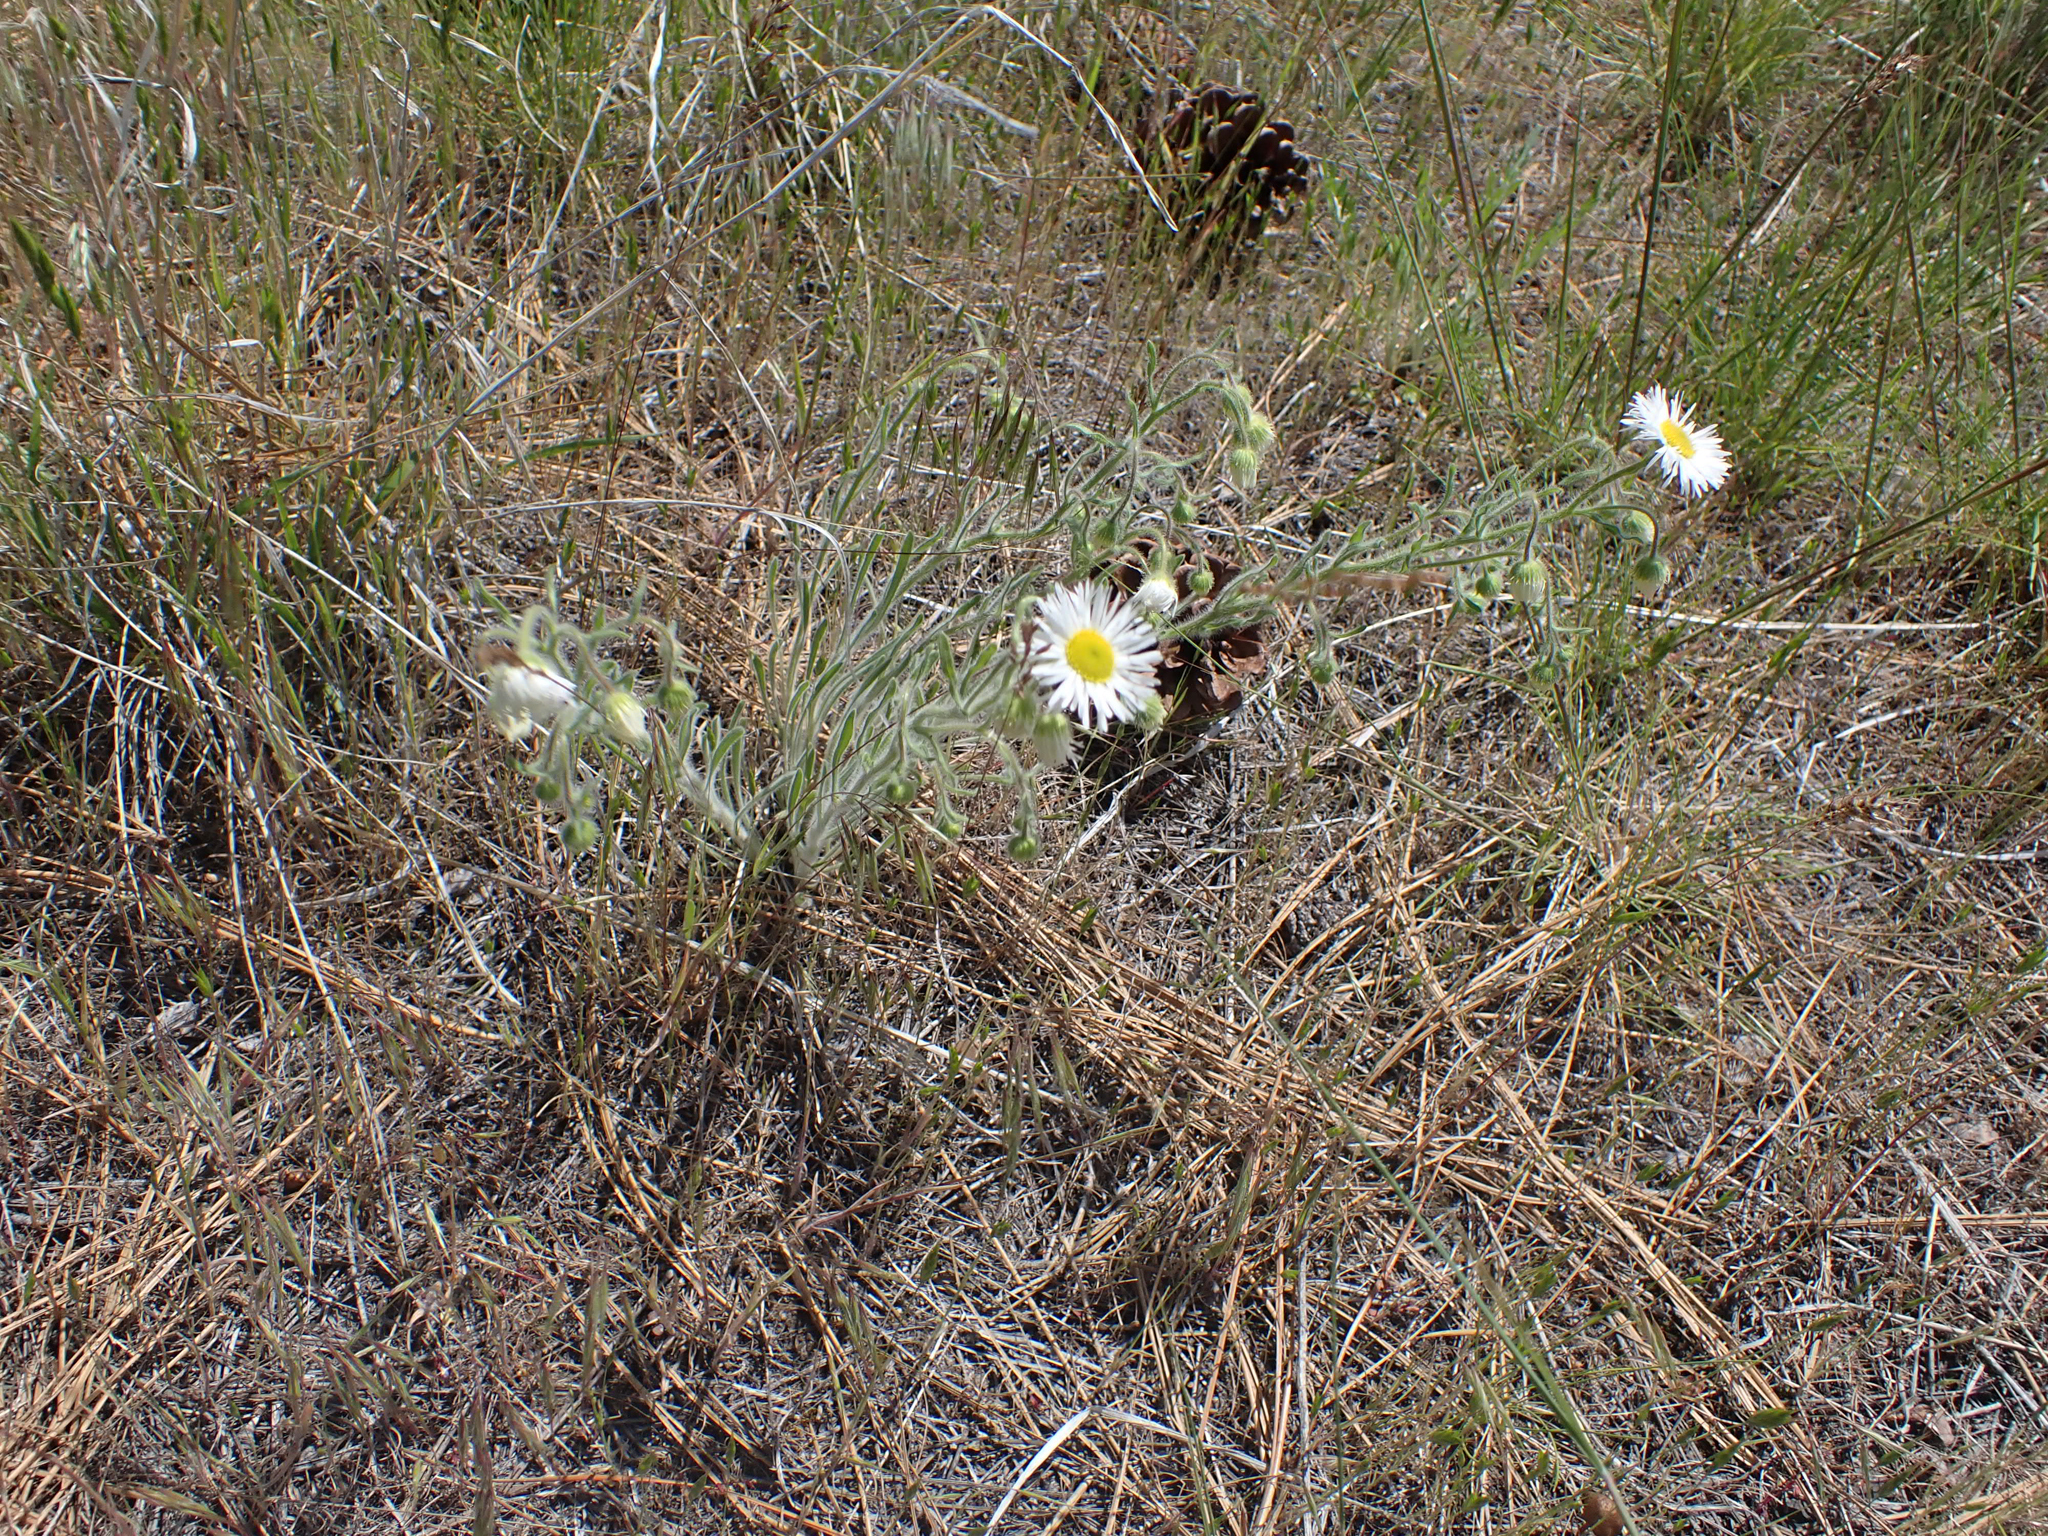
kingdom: Plantae
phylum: Tracheophyta
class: Magnoliopsida
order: Asterales
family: Asteraceae
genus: Erigeron
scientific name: Erigeron pumilus
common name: Shaggy fleabane
